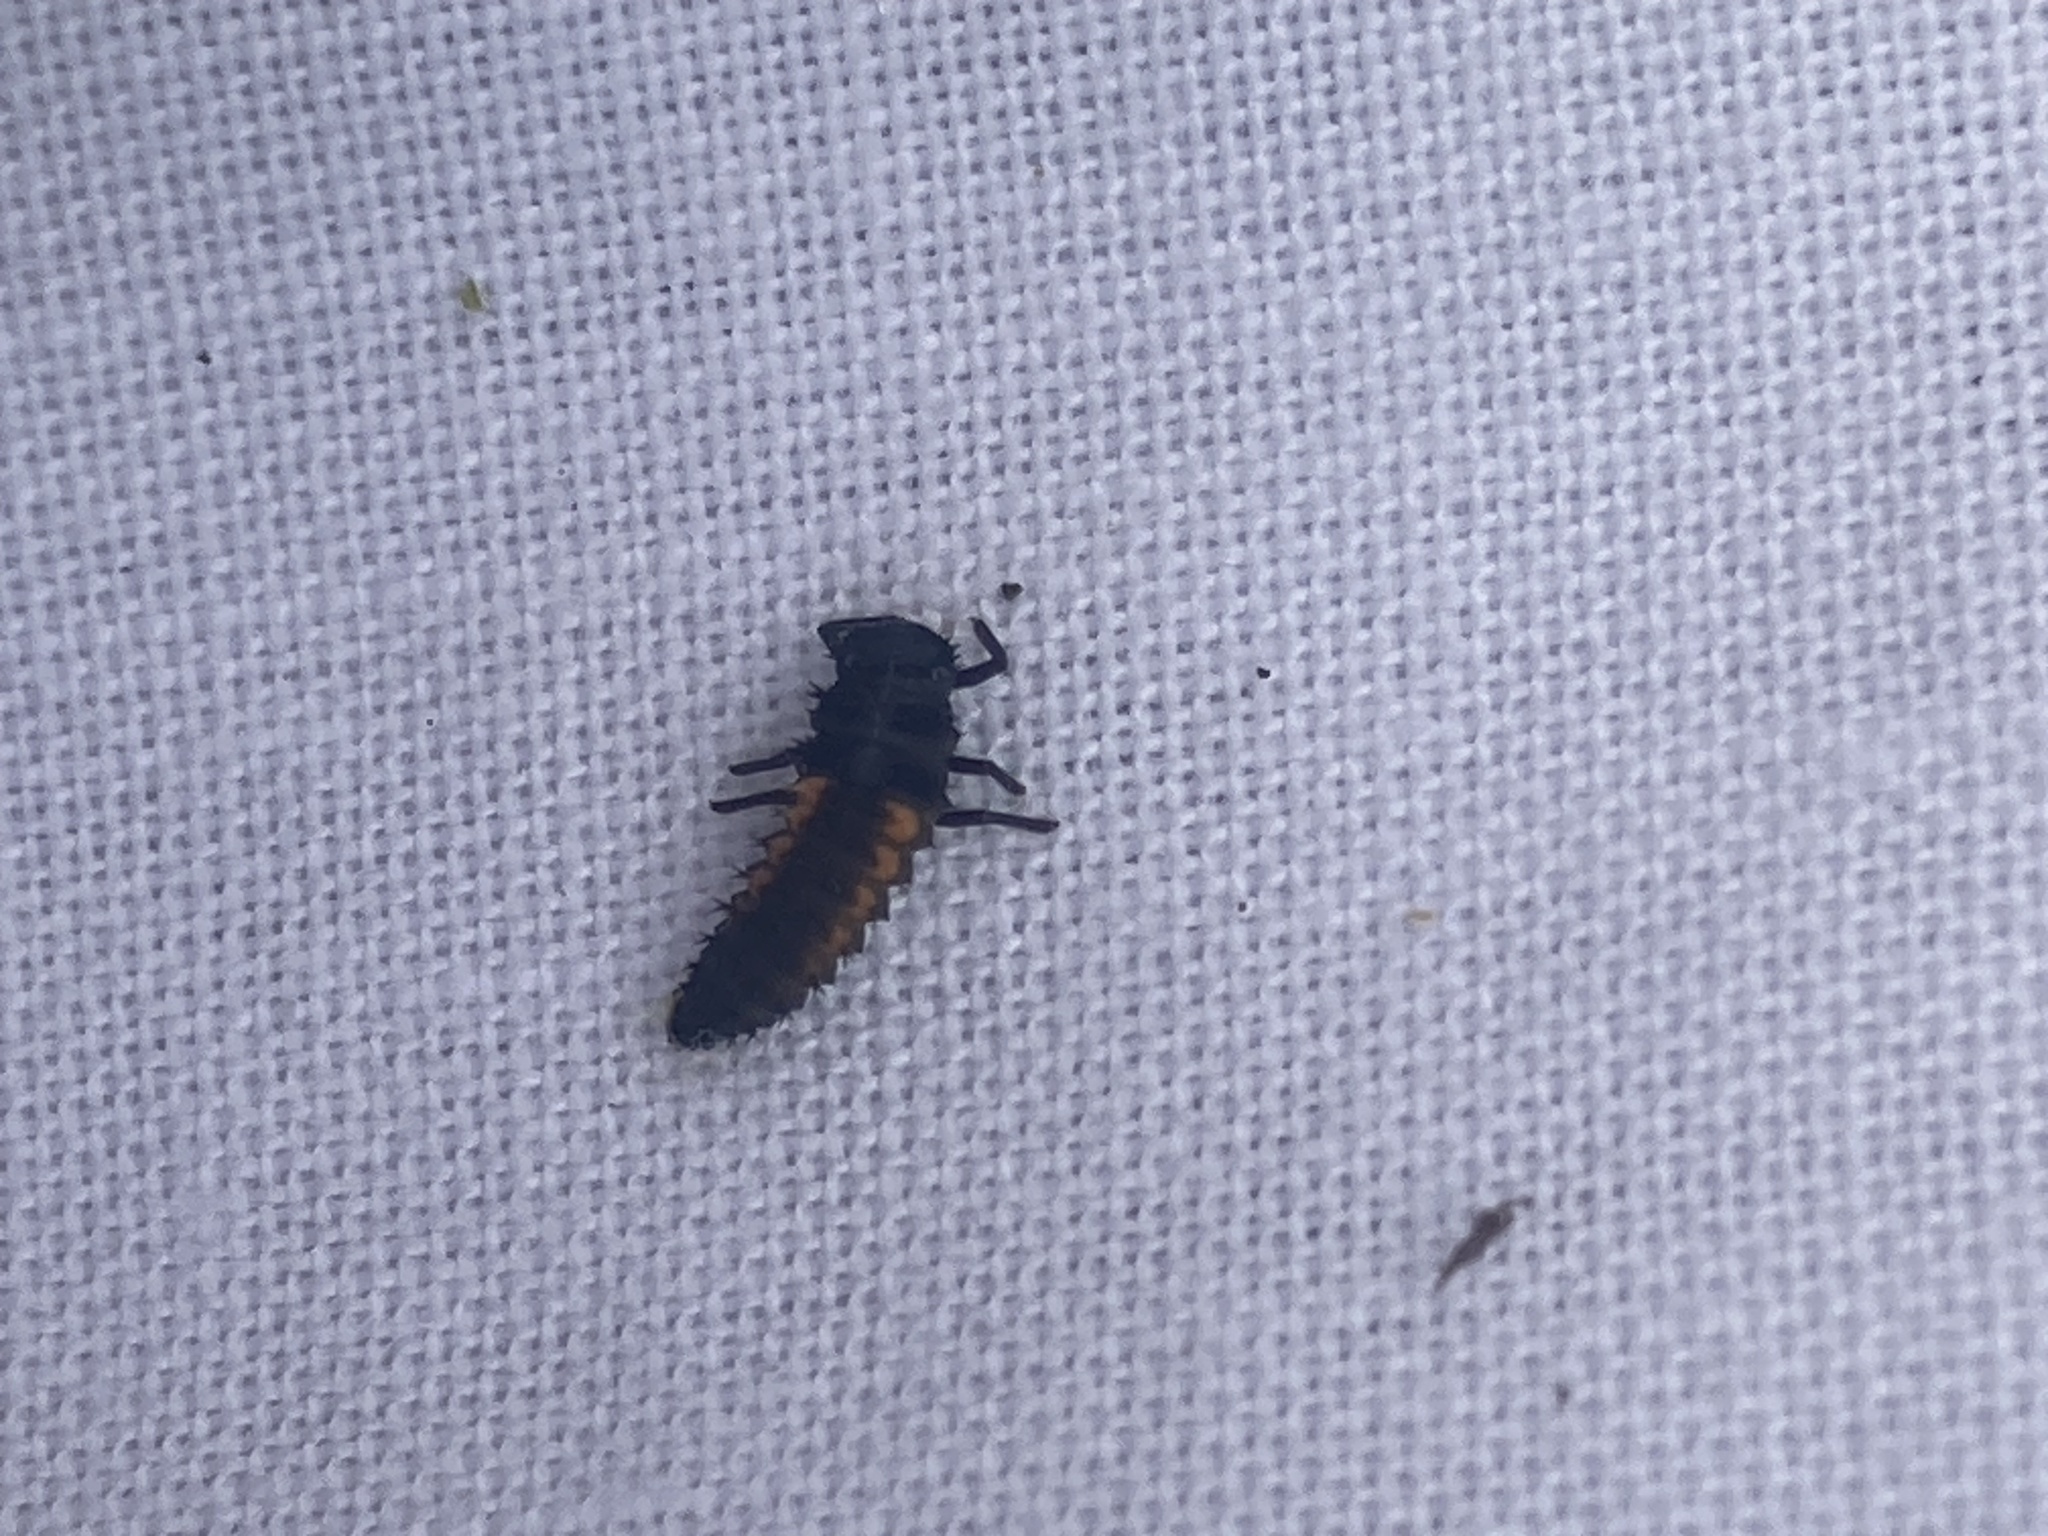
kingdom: Animalia
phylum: Arthropoda
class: Insecta
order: Coleoptera
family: Coccinellidae
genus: Harmonia
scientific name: Harmonia axyridis
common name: Harlequin ladybird
